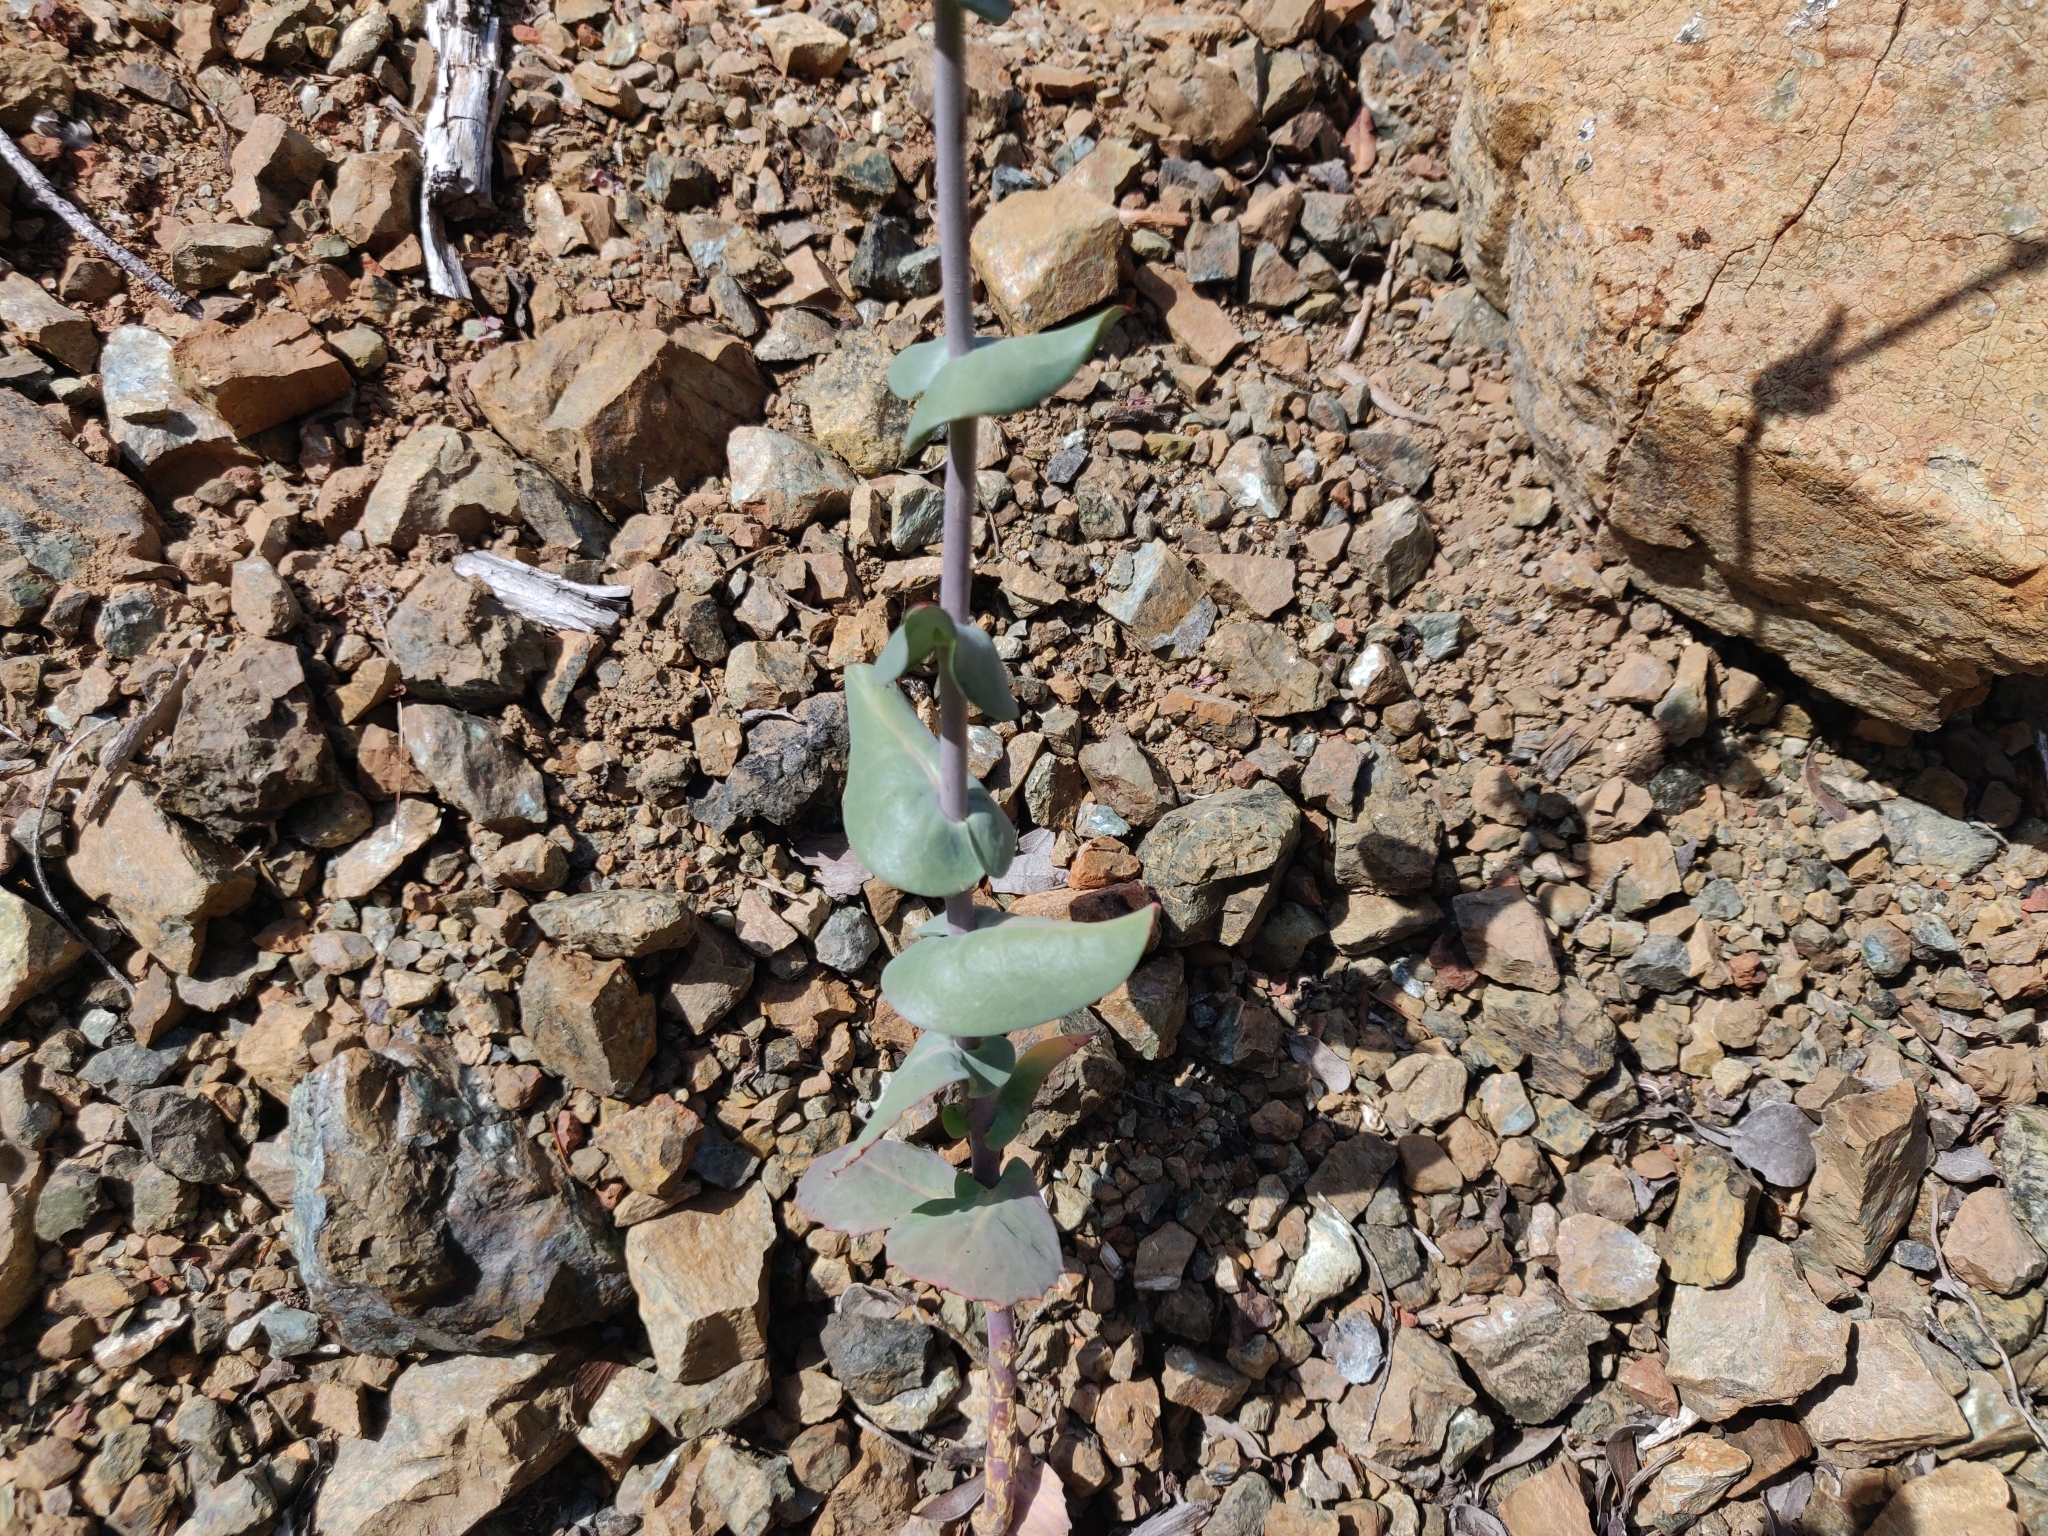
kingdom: Plantae
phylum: Tracheophyta
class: Magnoliopsida
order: Brassicales
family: Brassicaceae
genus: Streptanthus
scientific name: Streptanthus morrisonii
